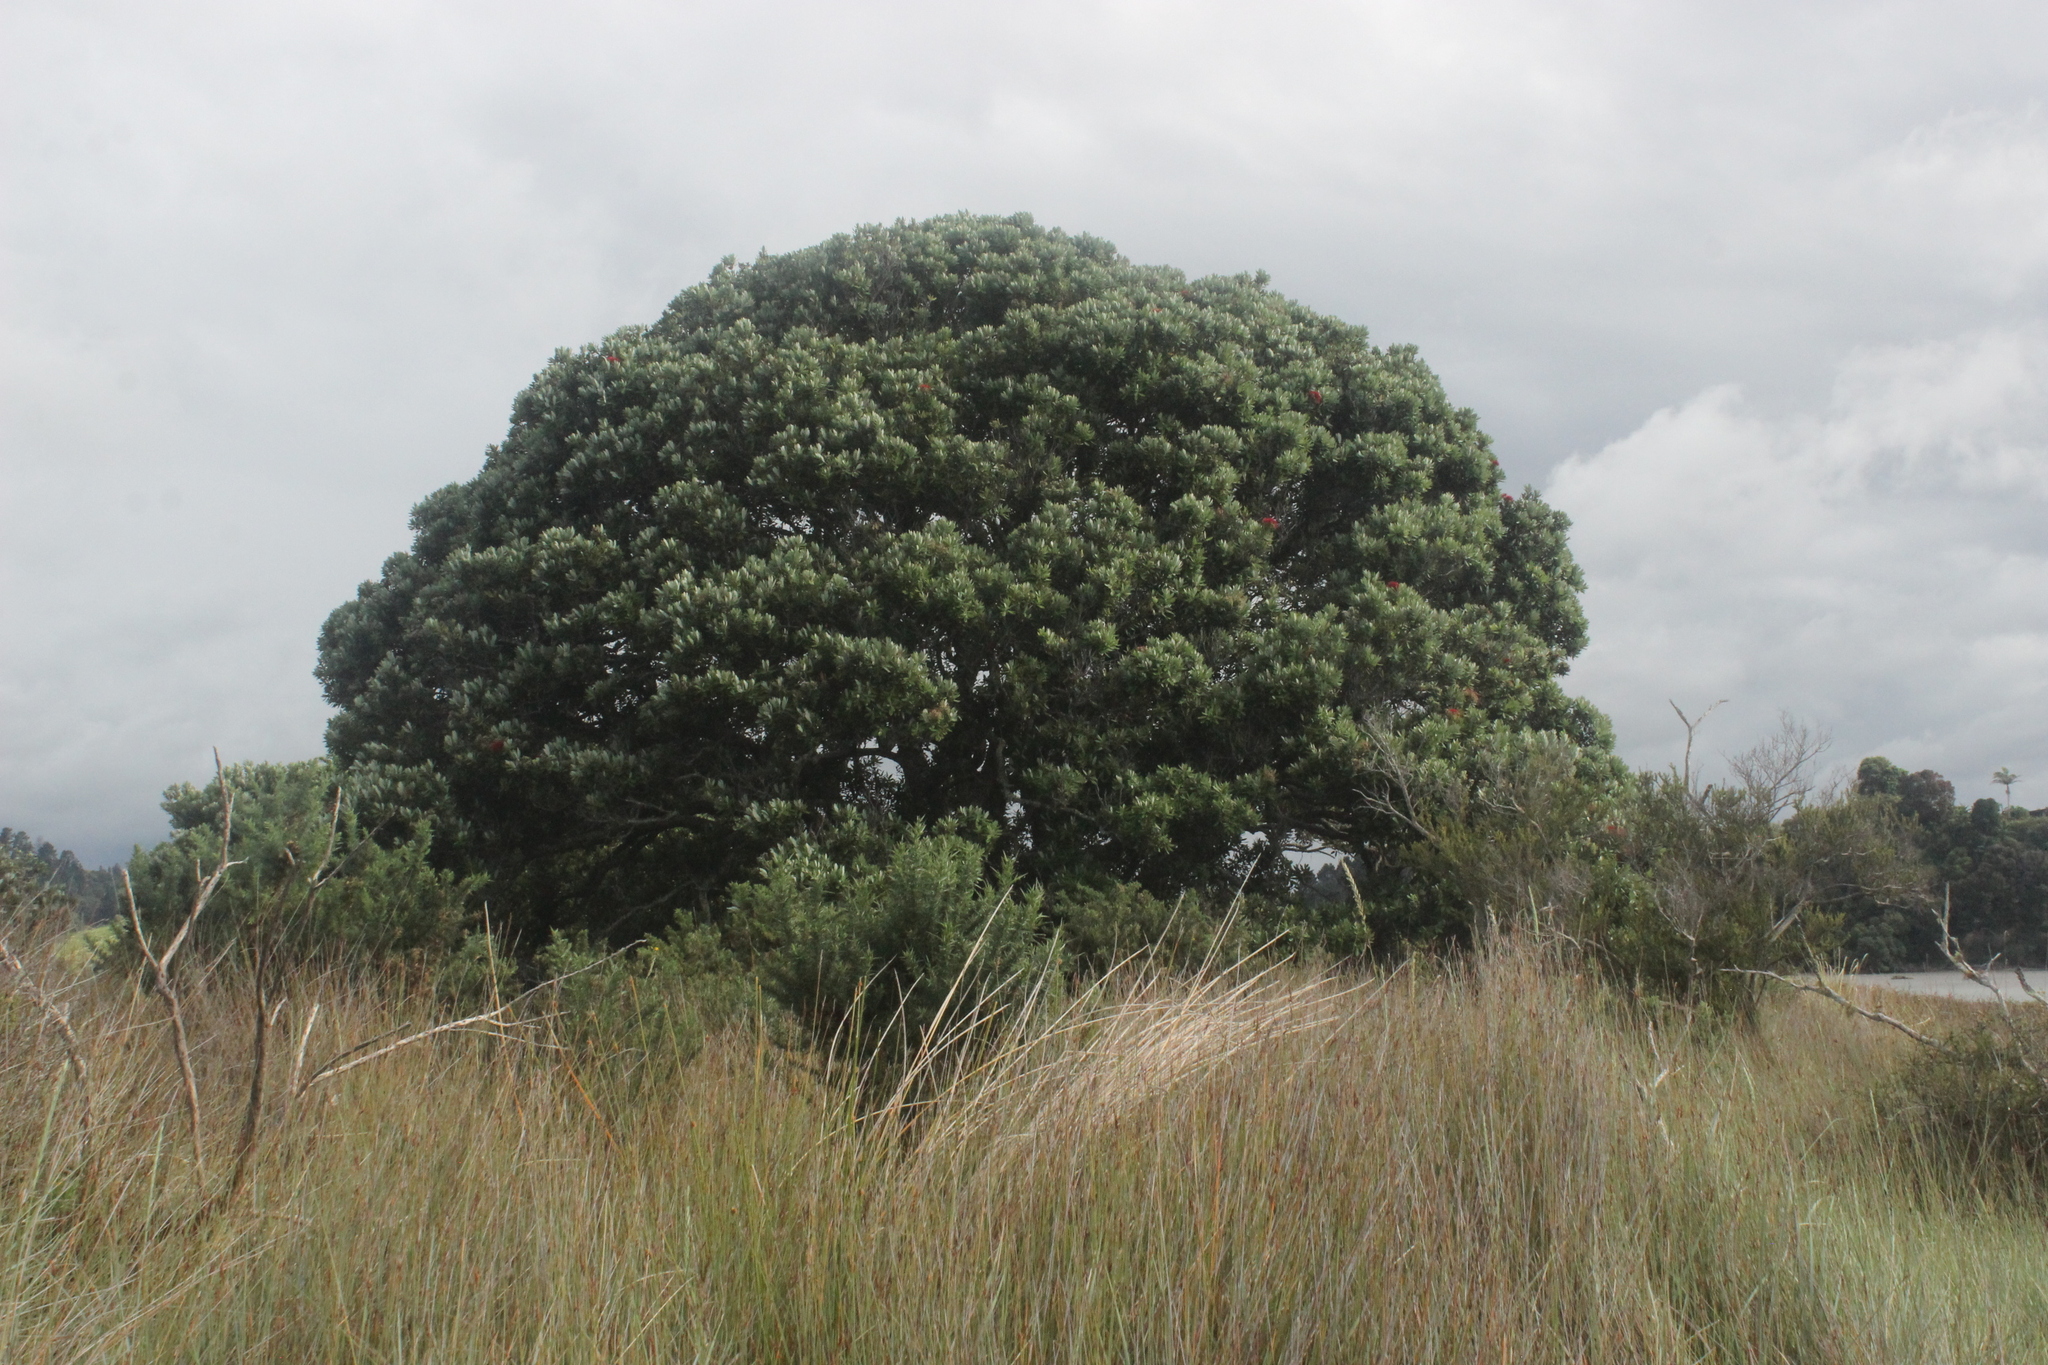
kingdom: Plantae
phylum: Tracheophyta
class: Magnoliopsida
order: Myrtales
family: Myrtaceae
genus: Metrosideros
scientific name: Metrosideros excelsa
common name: New zealand christmastree
